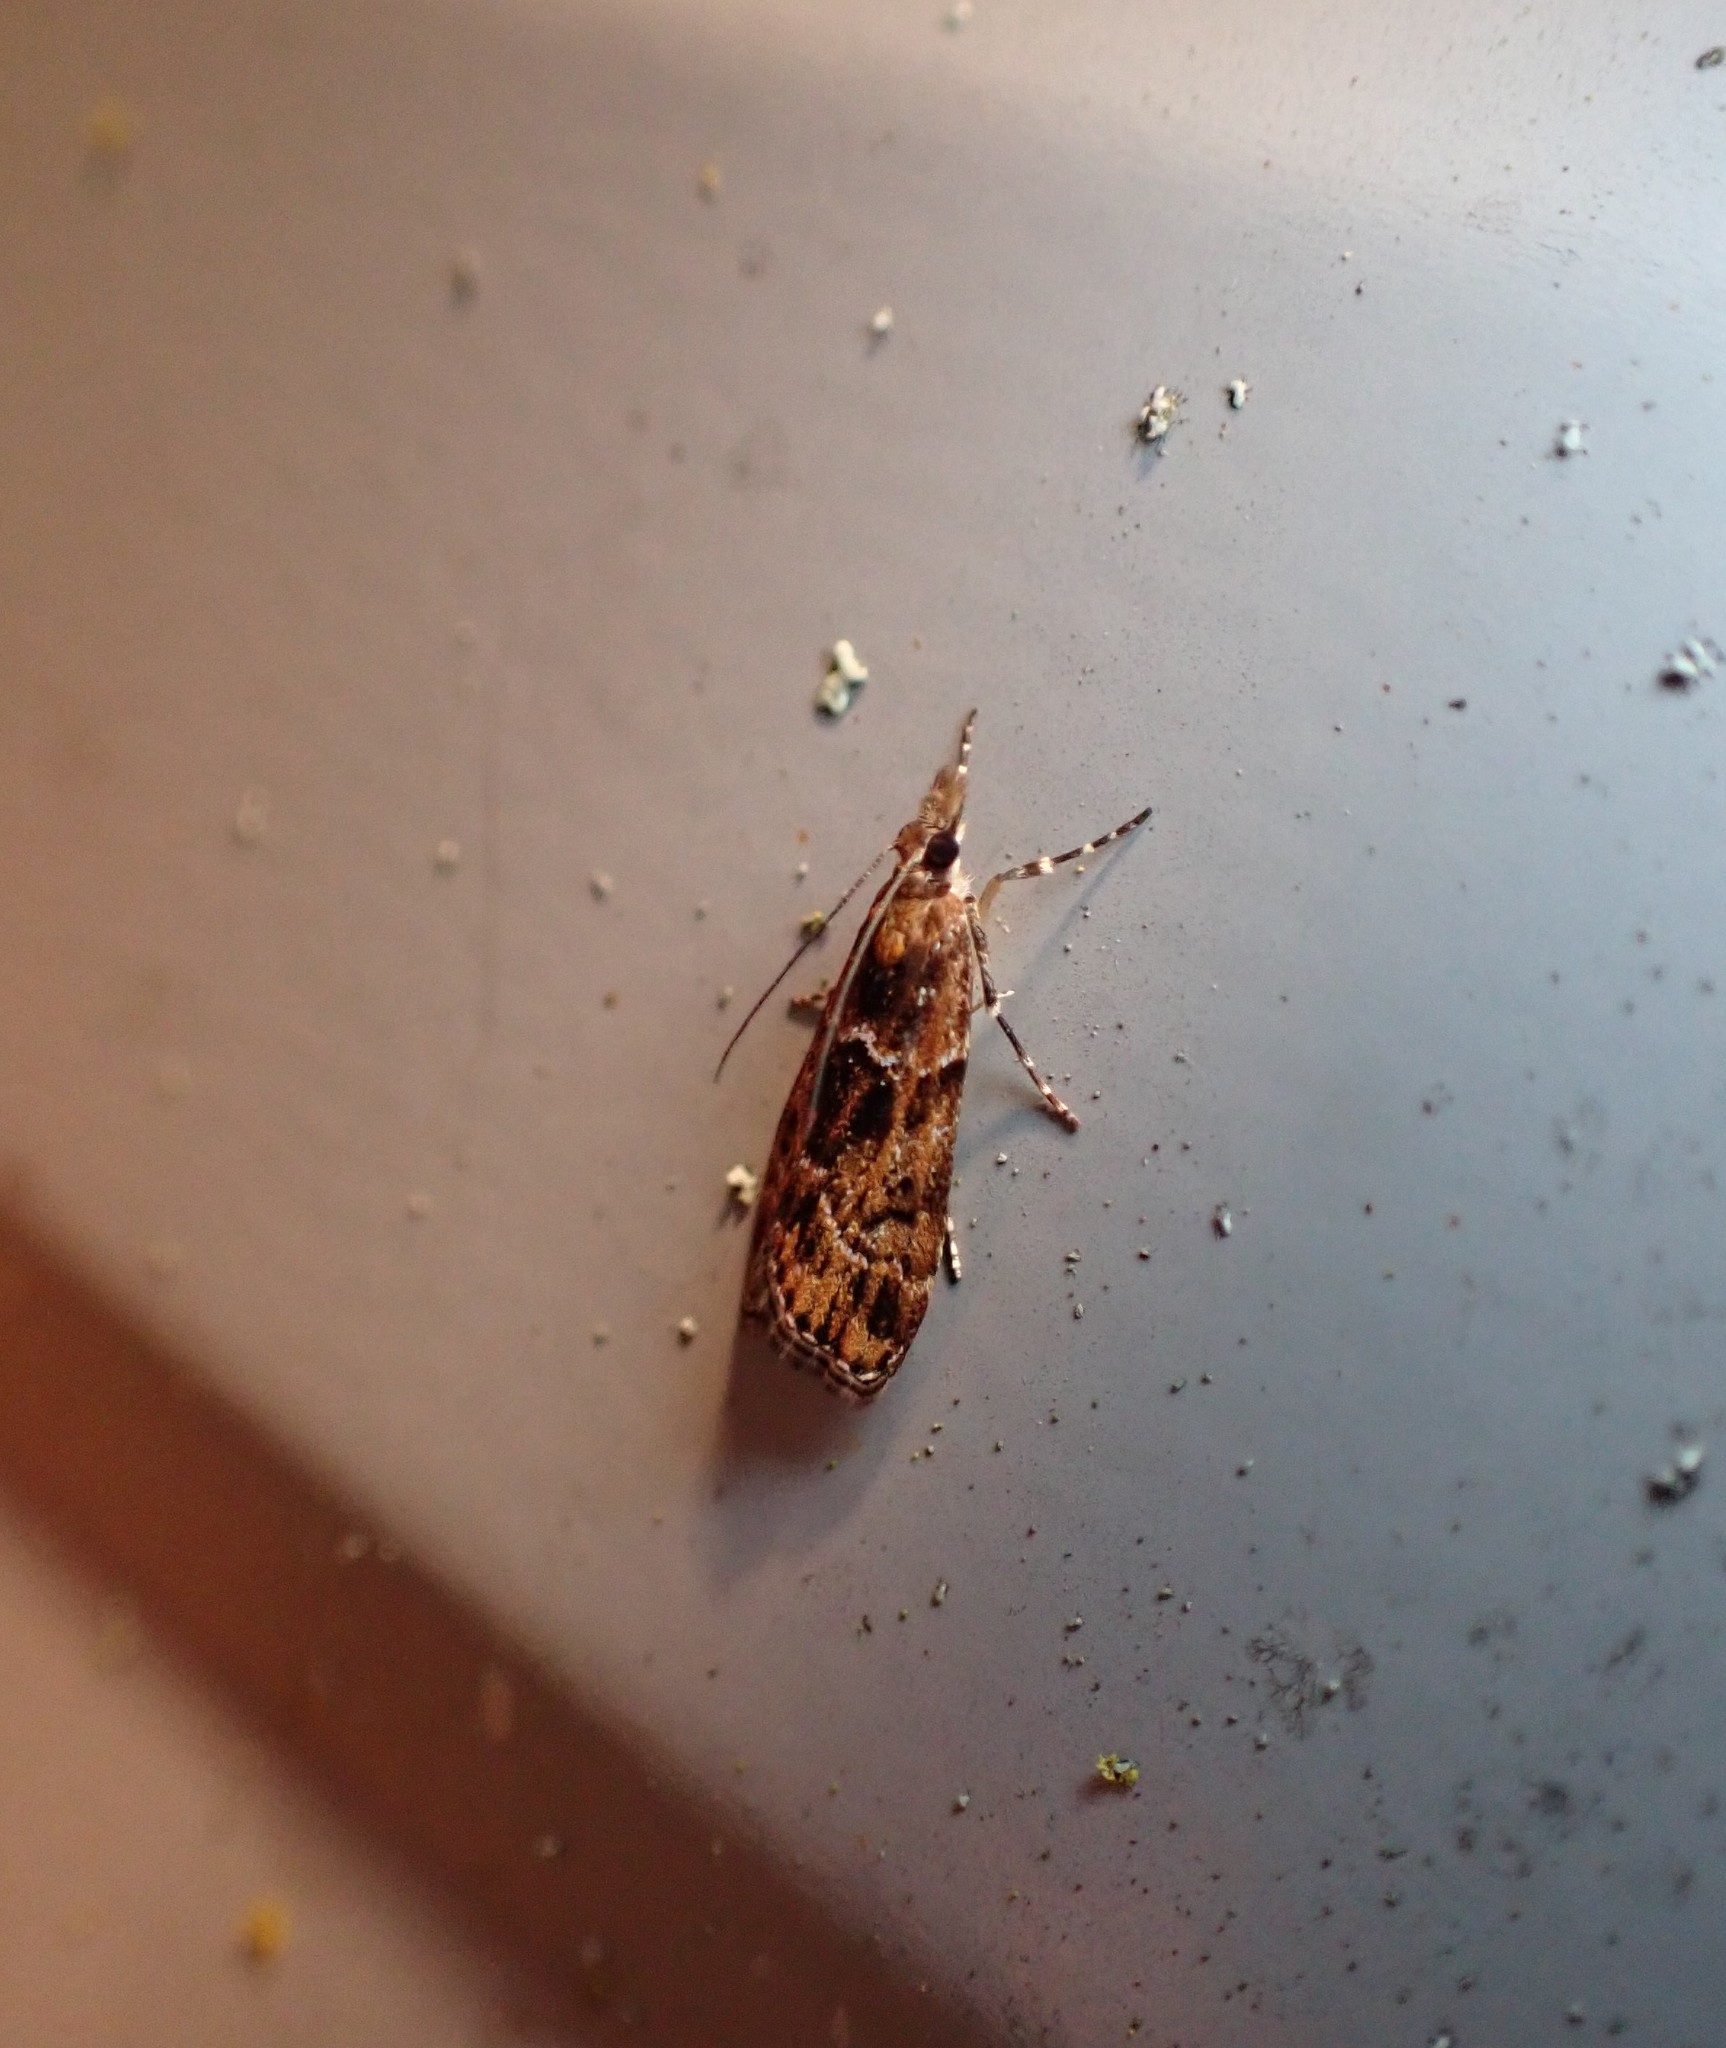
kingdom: Animalia
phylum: Arthropoda
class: Insecta
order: Lepidoptera
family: Crambidae
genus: Scoparia
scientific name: Scoparia animosa
